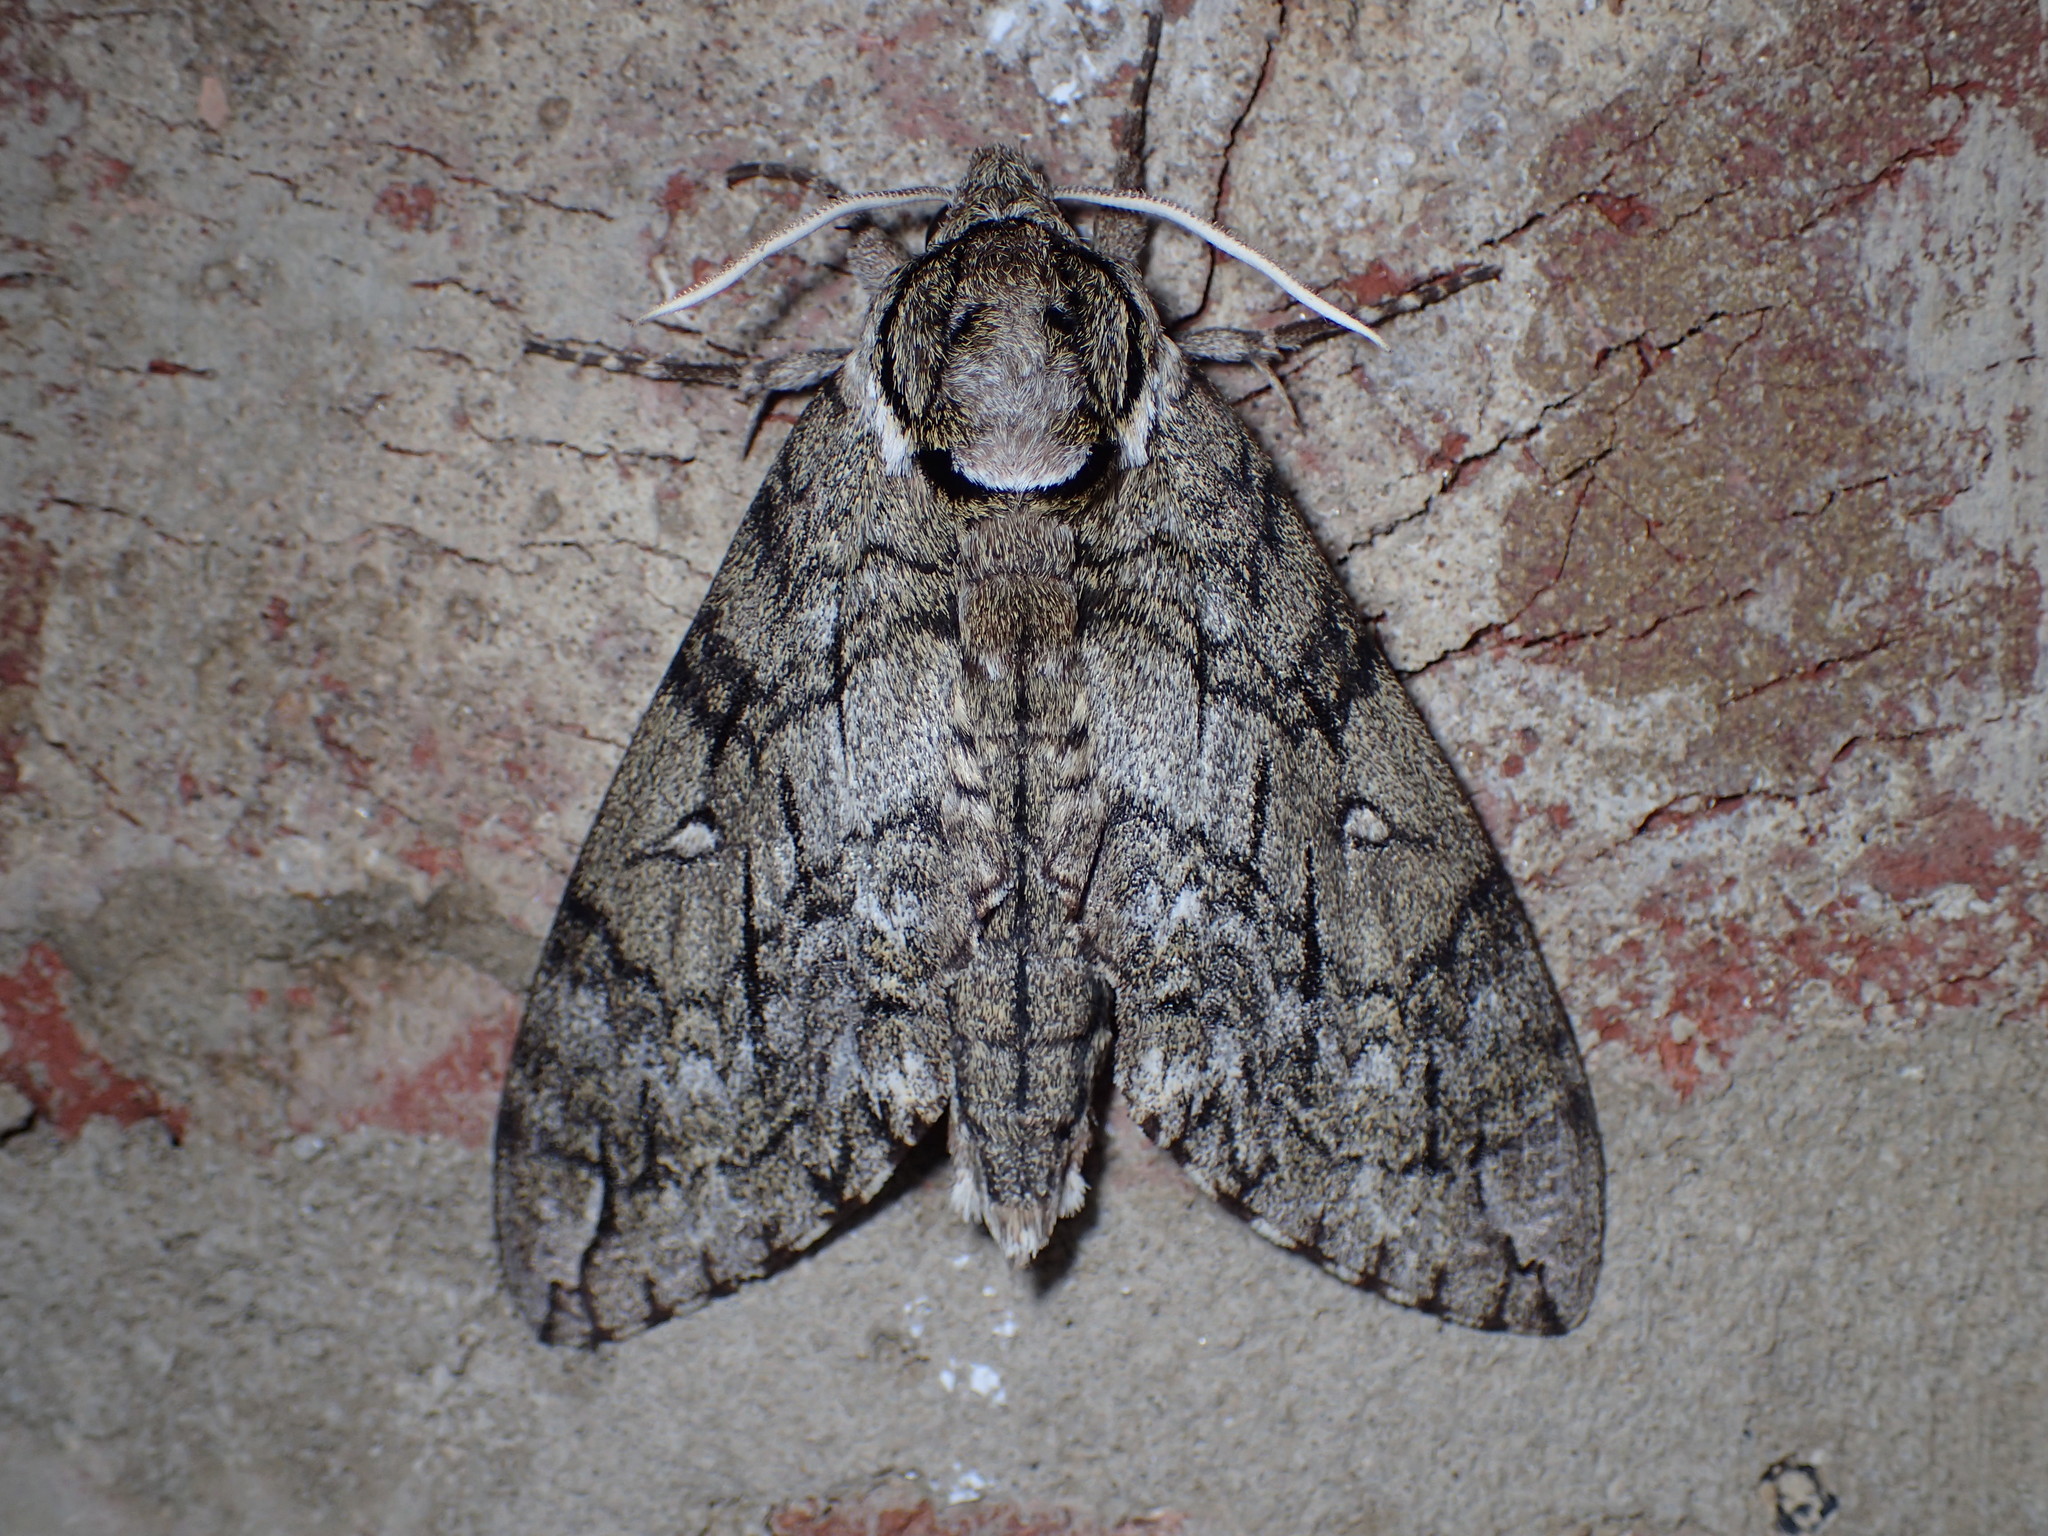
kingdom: Animalia
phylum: Arthropoda
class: Insecta
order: Lepidoptera
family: Sphingidae
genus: Ceratomia
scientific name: Ceratomia undulosa
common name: Waved sphinx
